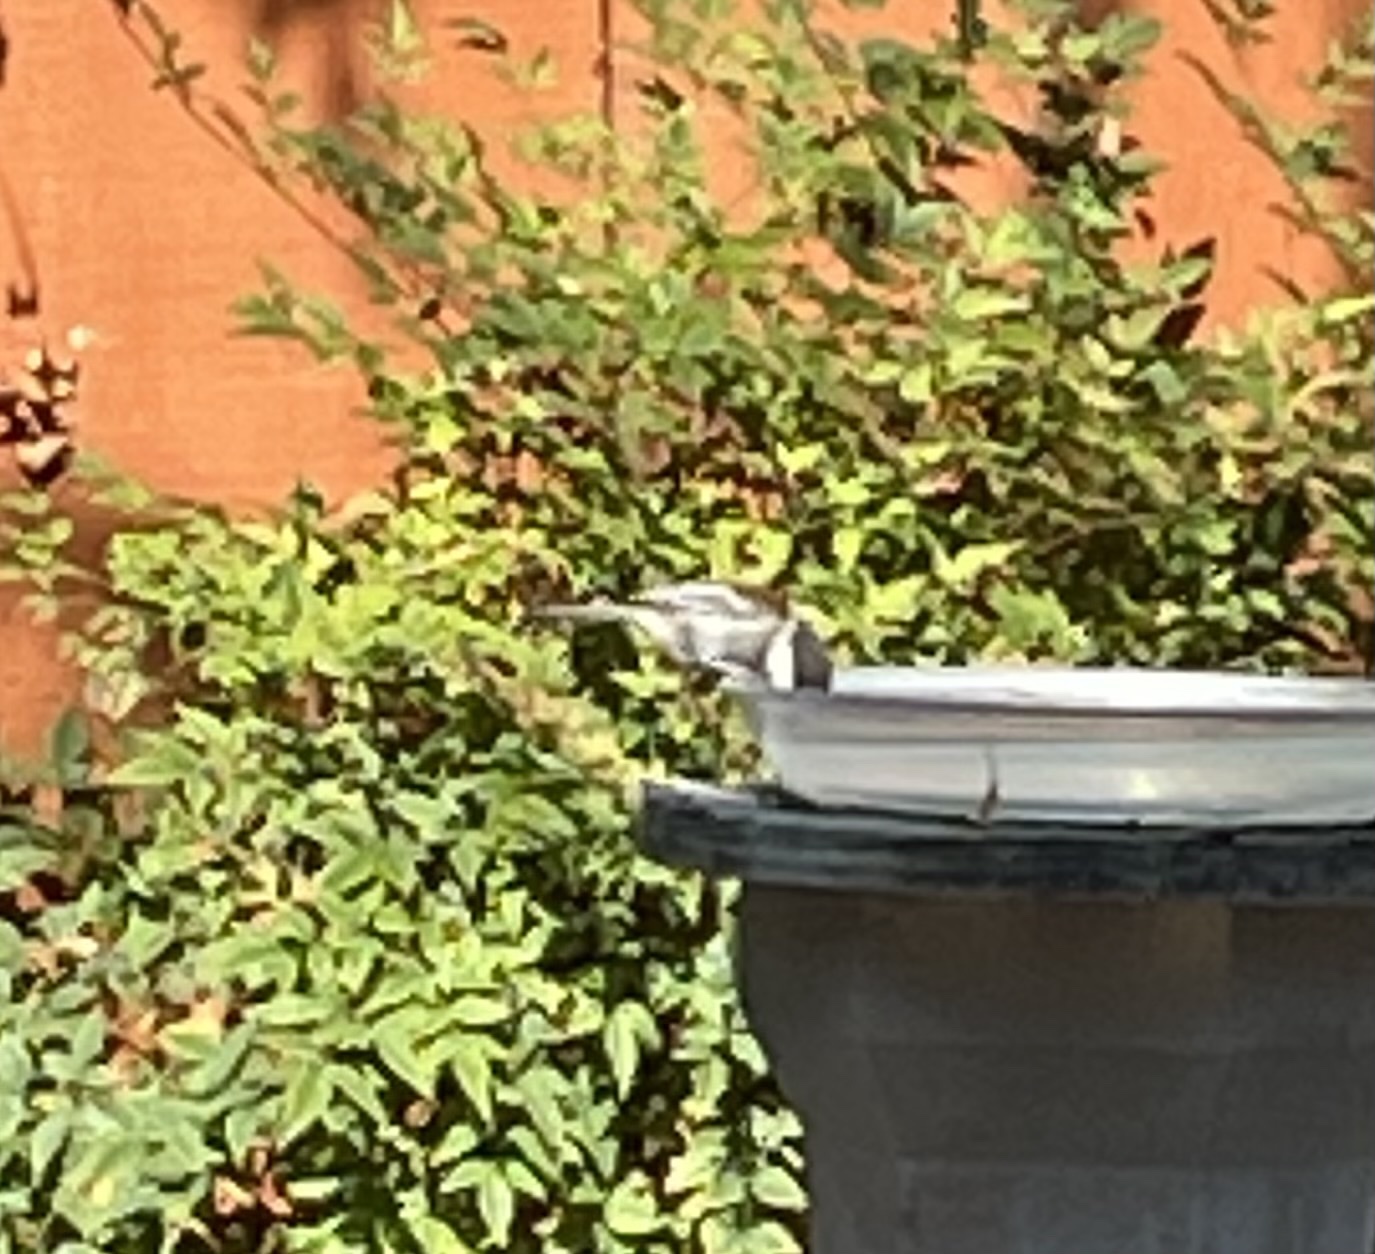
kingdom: Animalia
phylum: Chordata
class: Aves
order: Passeriformes
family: Paridae
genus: Poecile
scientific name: Poecile rufescens
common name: Chestnut-backed chickadee
